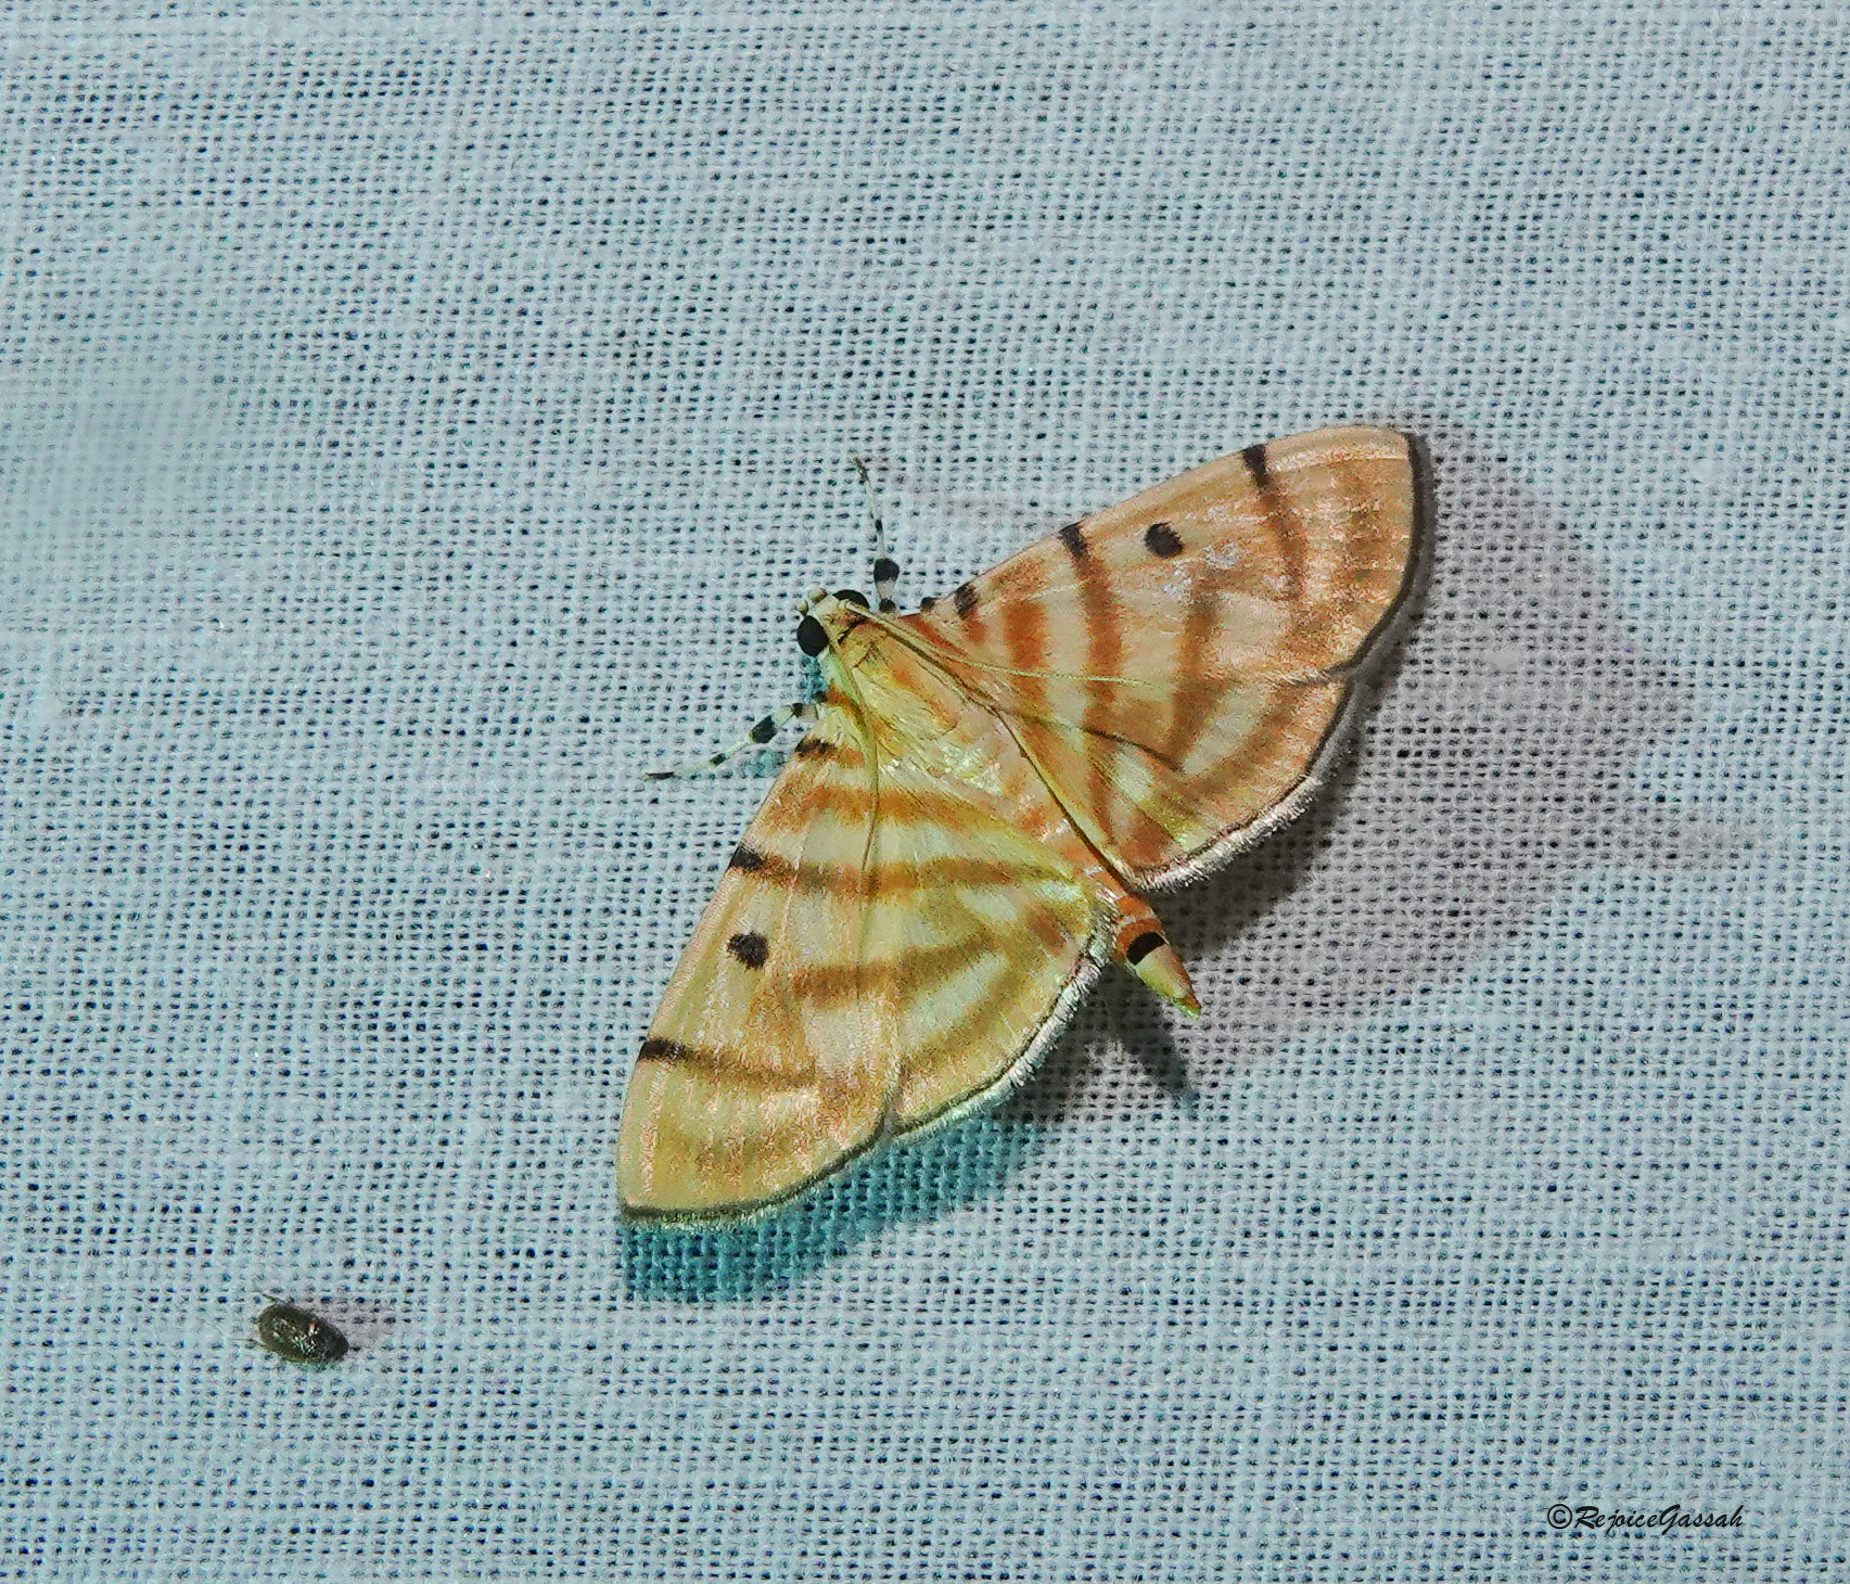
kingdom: Animalia
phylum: Arthropoda
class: Insecta
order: Lepidoptera
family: Crambidae
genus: Orthospila
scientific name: Orthospila orissusalis
